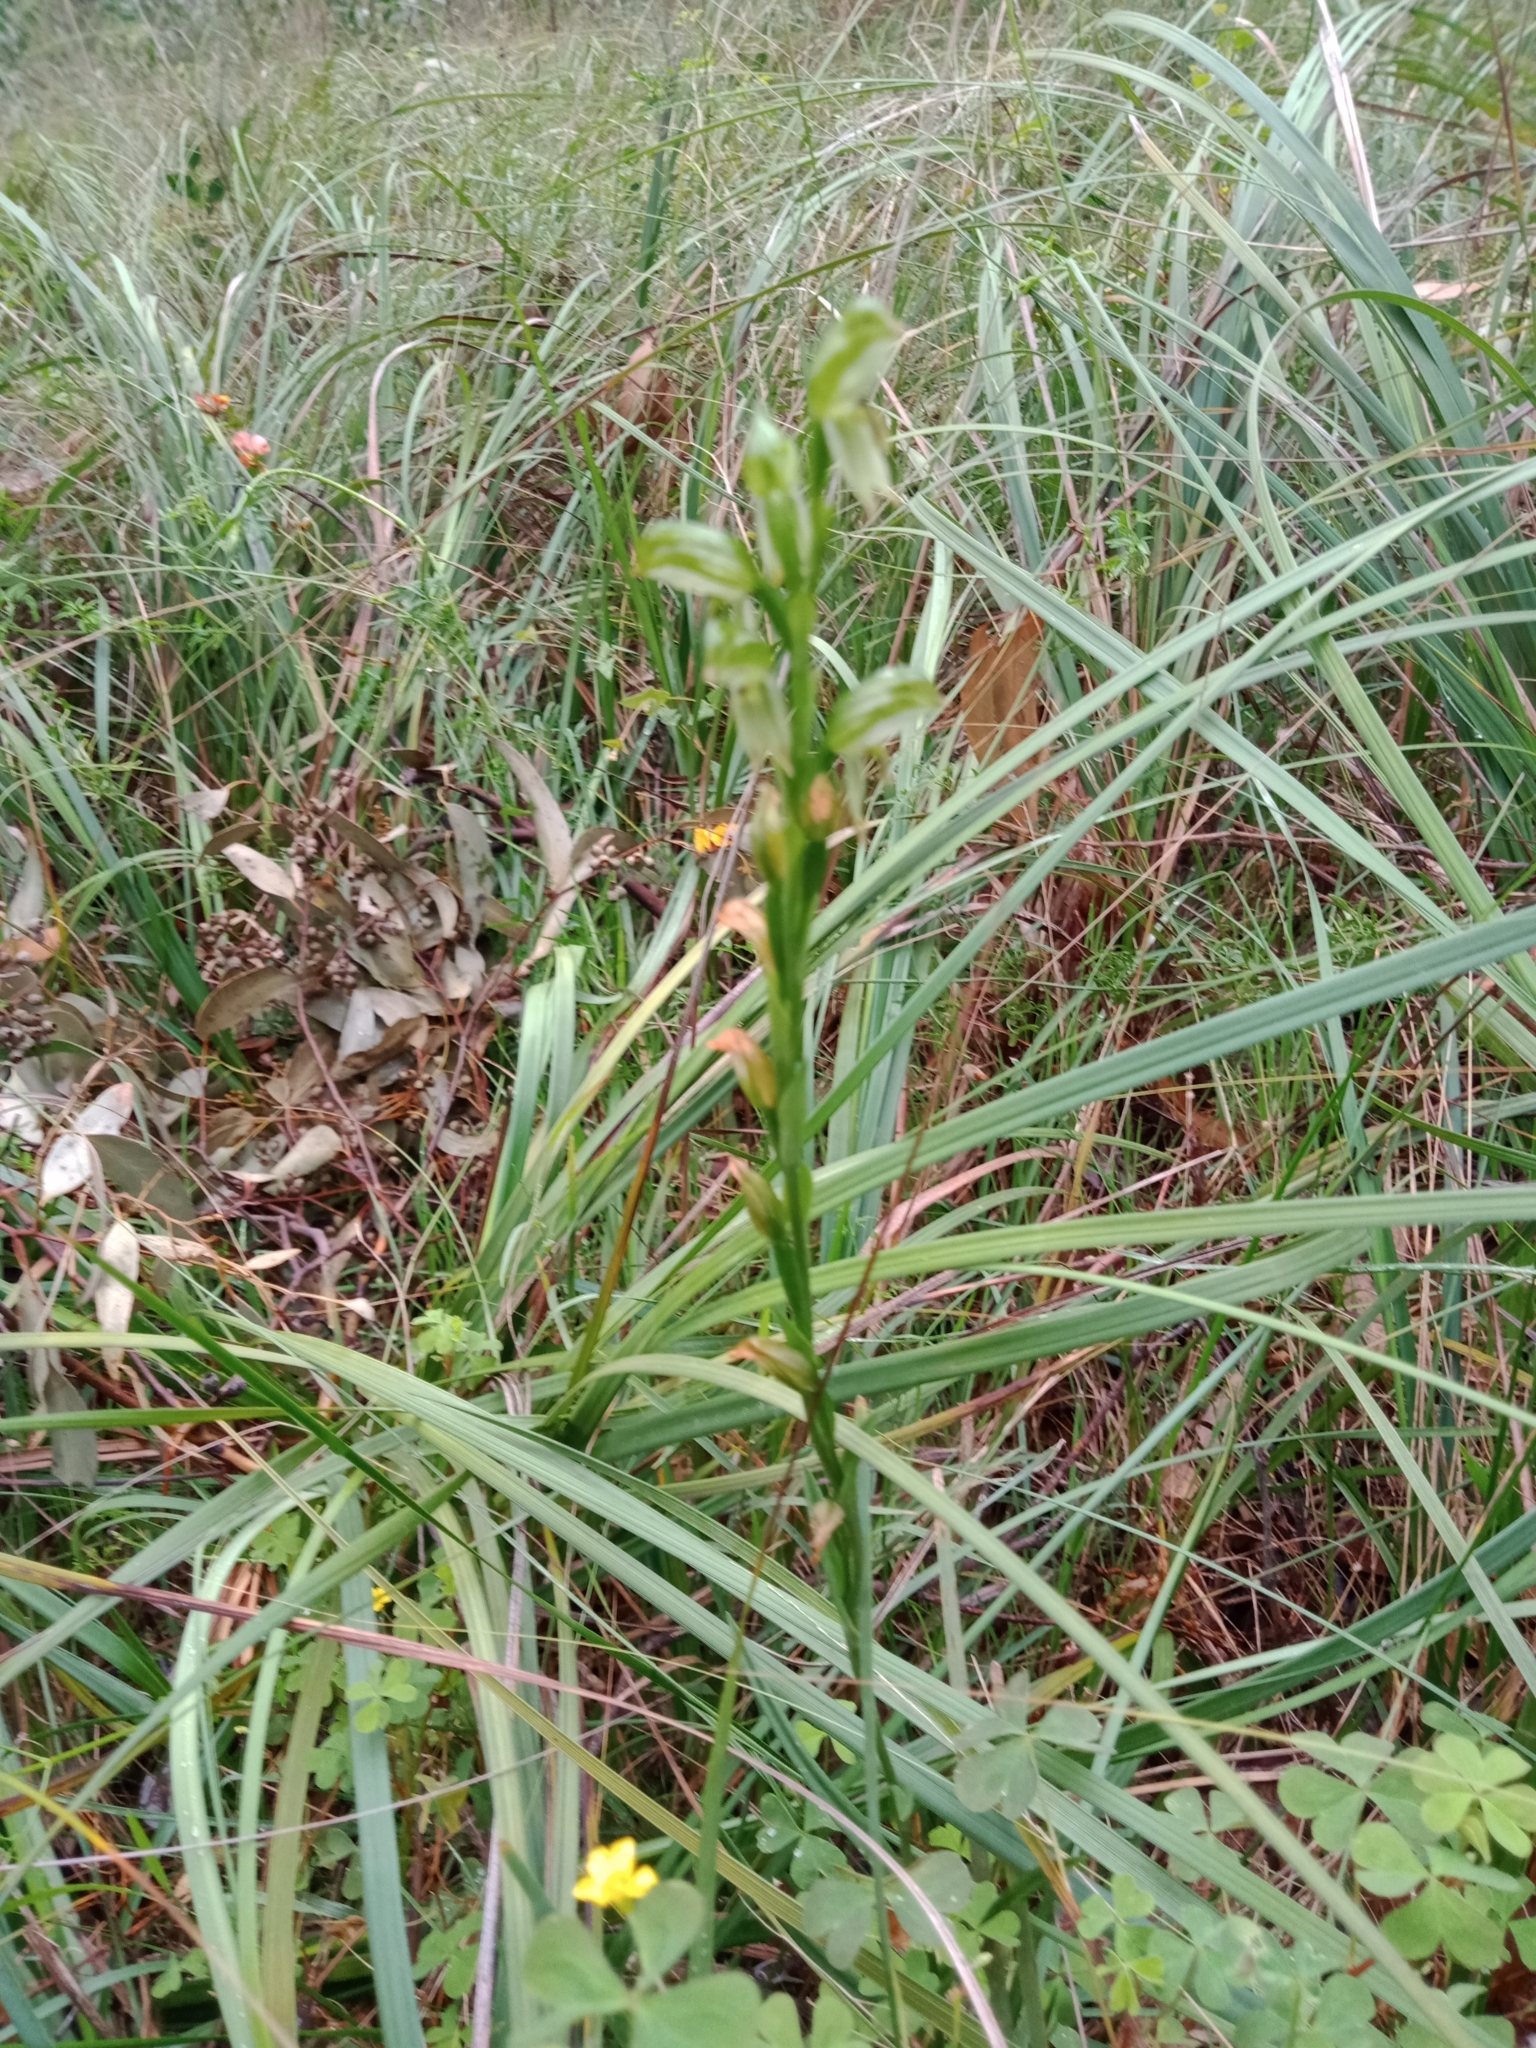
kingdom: Plantae
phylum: Tracheophyta
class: Liliopsida
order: Asparagales
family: Orchidaceae
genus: Pterostylis
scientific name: Pterostylis melagramma
